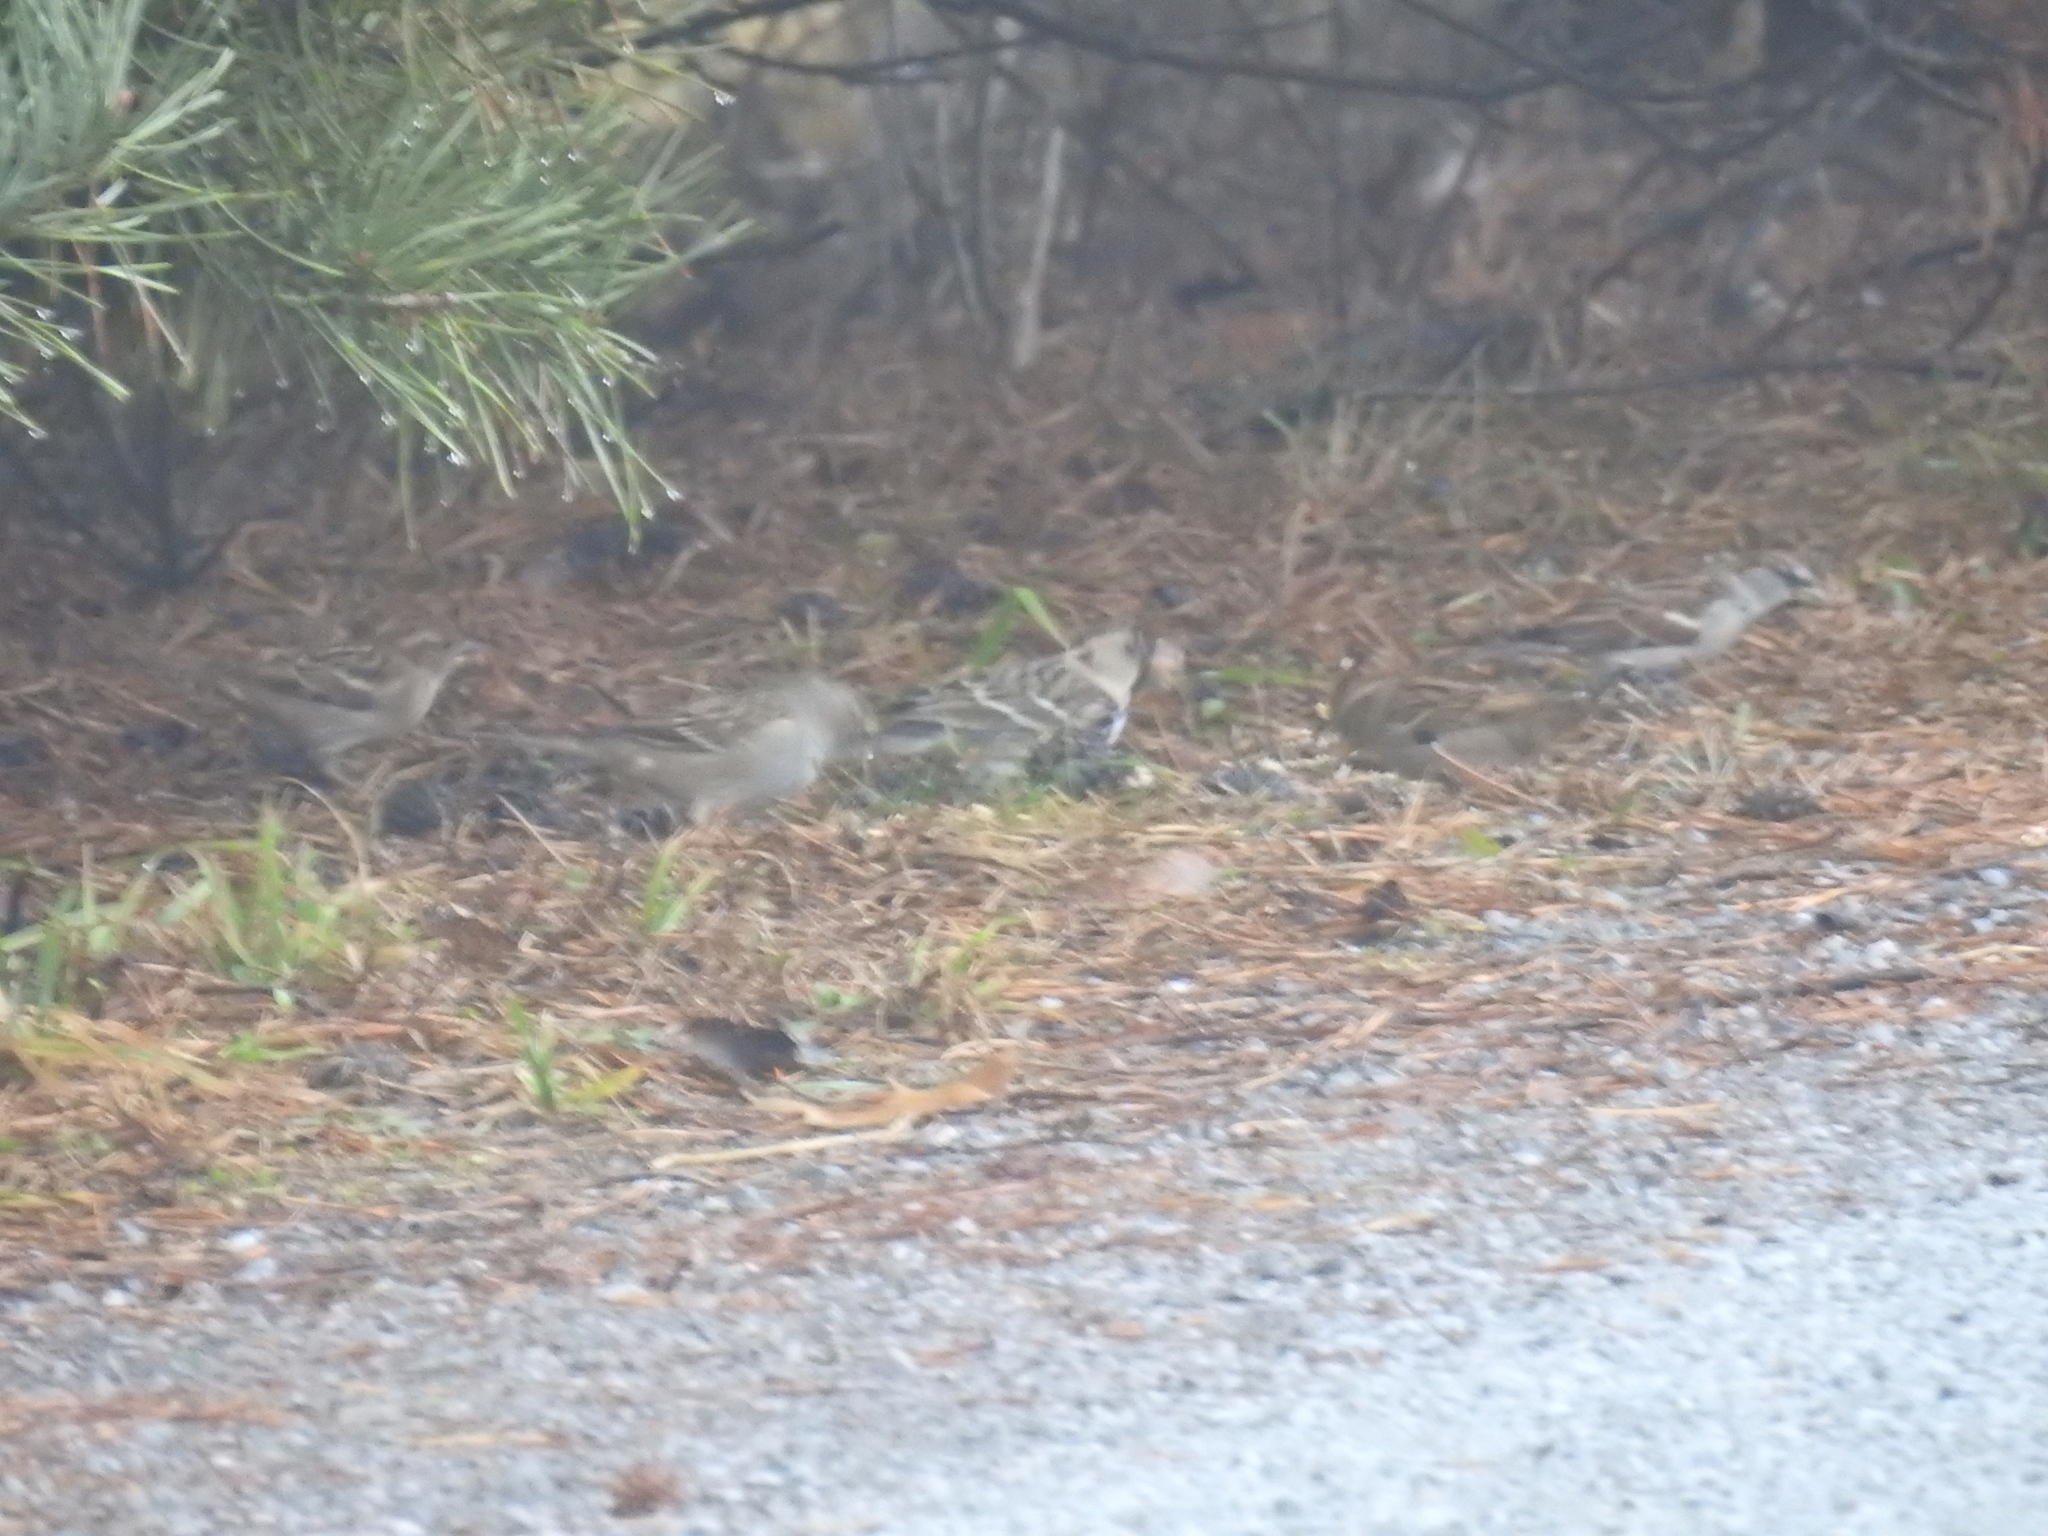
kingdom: Animalia
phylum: Chordata
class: Aves
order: Passeriformes
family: Passerellidae
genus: Zonotrichia
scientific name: Zonotrichia leucophrys
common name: White-crowned sparrow
